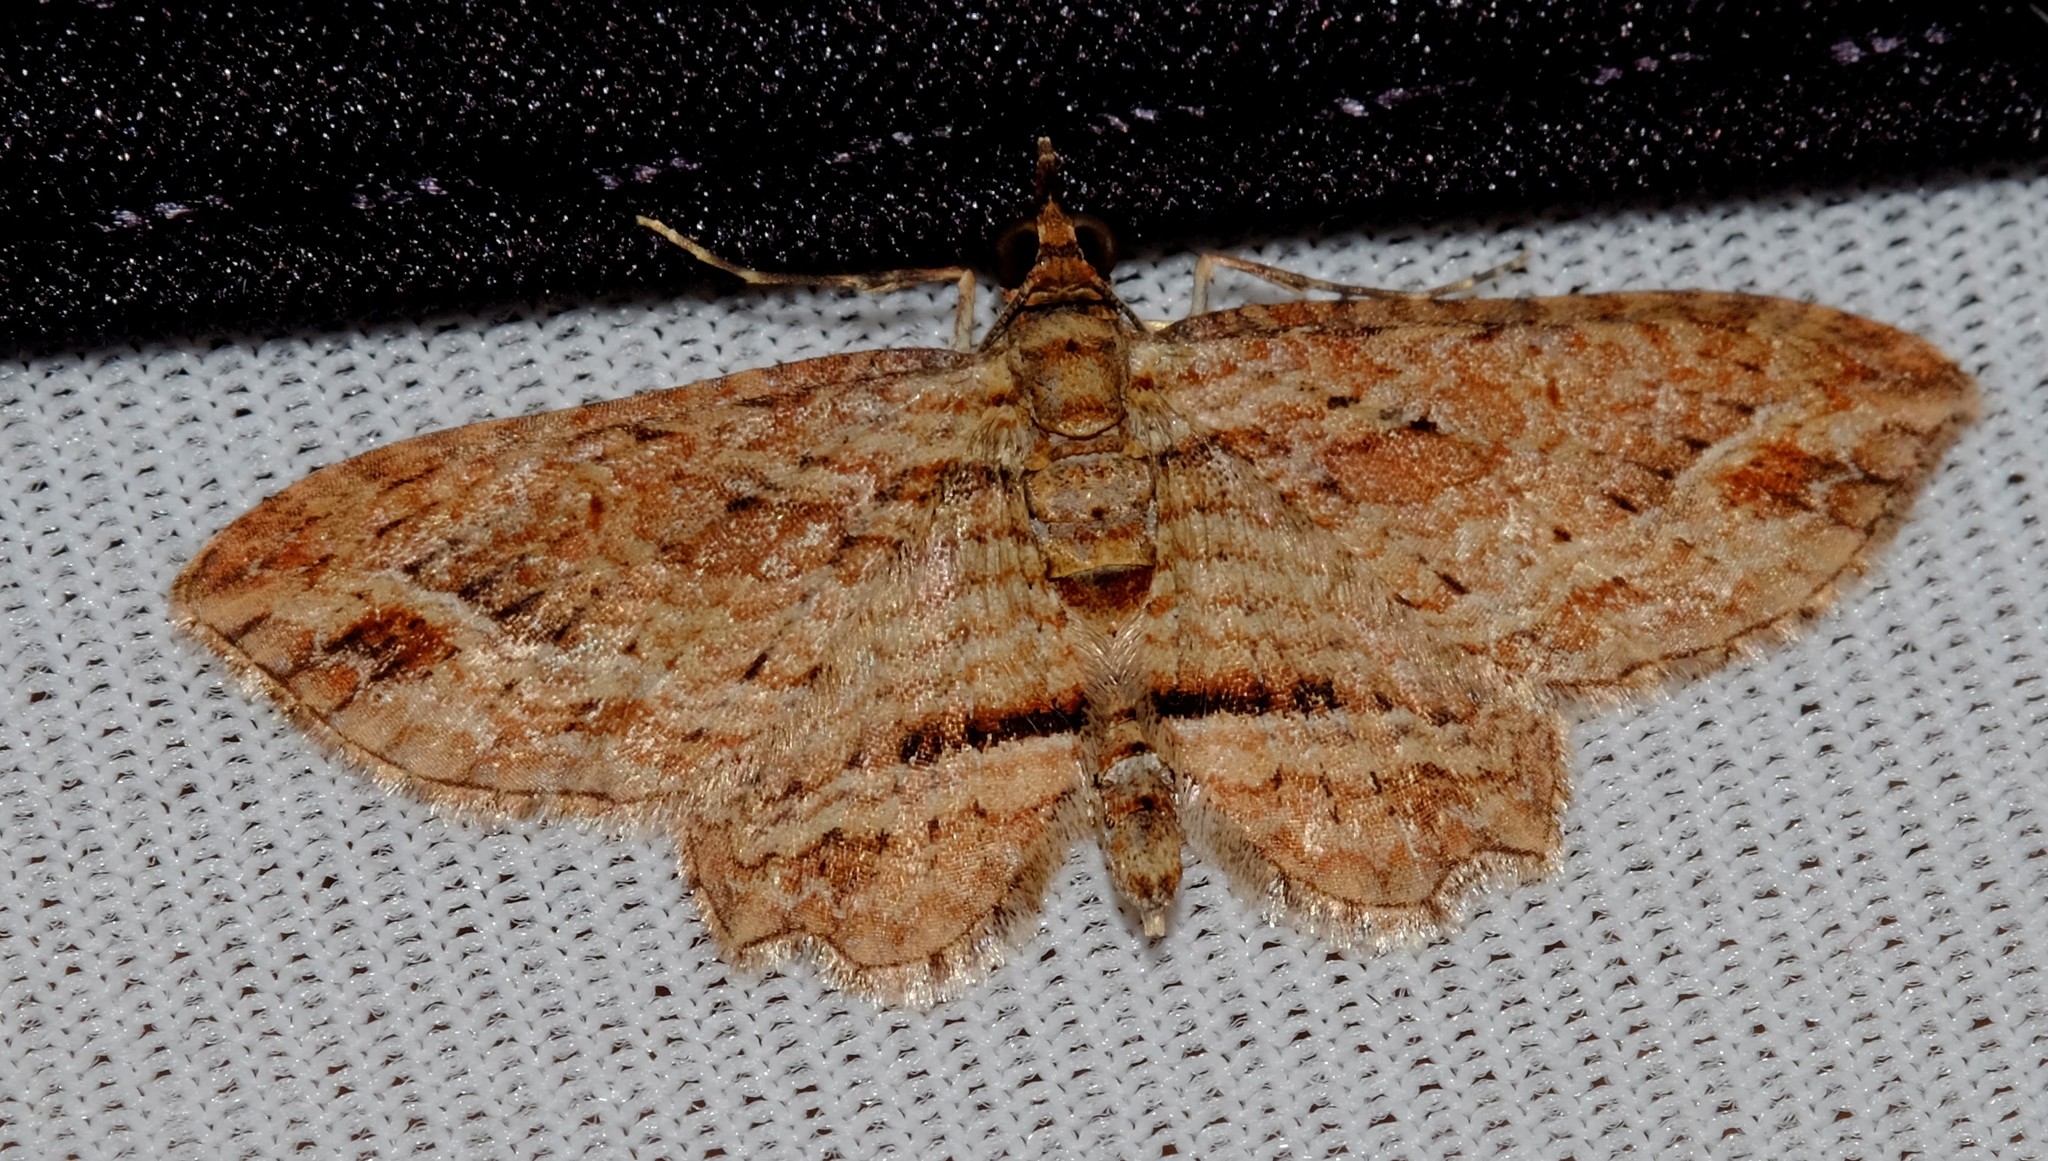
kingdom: Animalia
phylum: Arthropoda
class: Insecta
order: Lepidoptera
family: Geometridae
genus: Chloroclystis
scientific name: Chloroclystis filata
